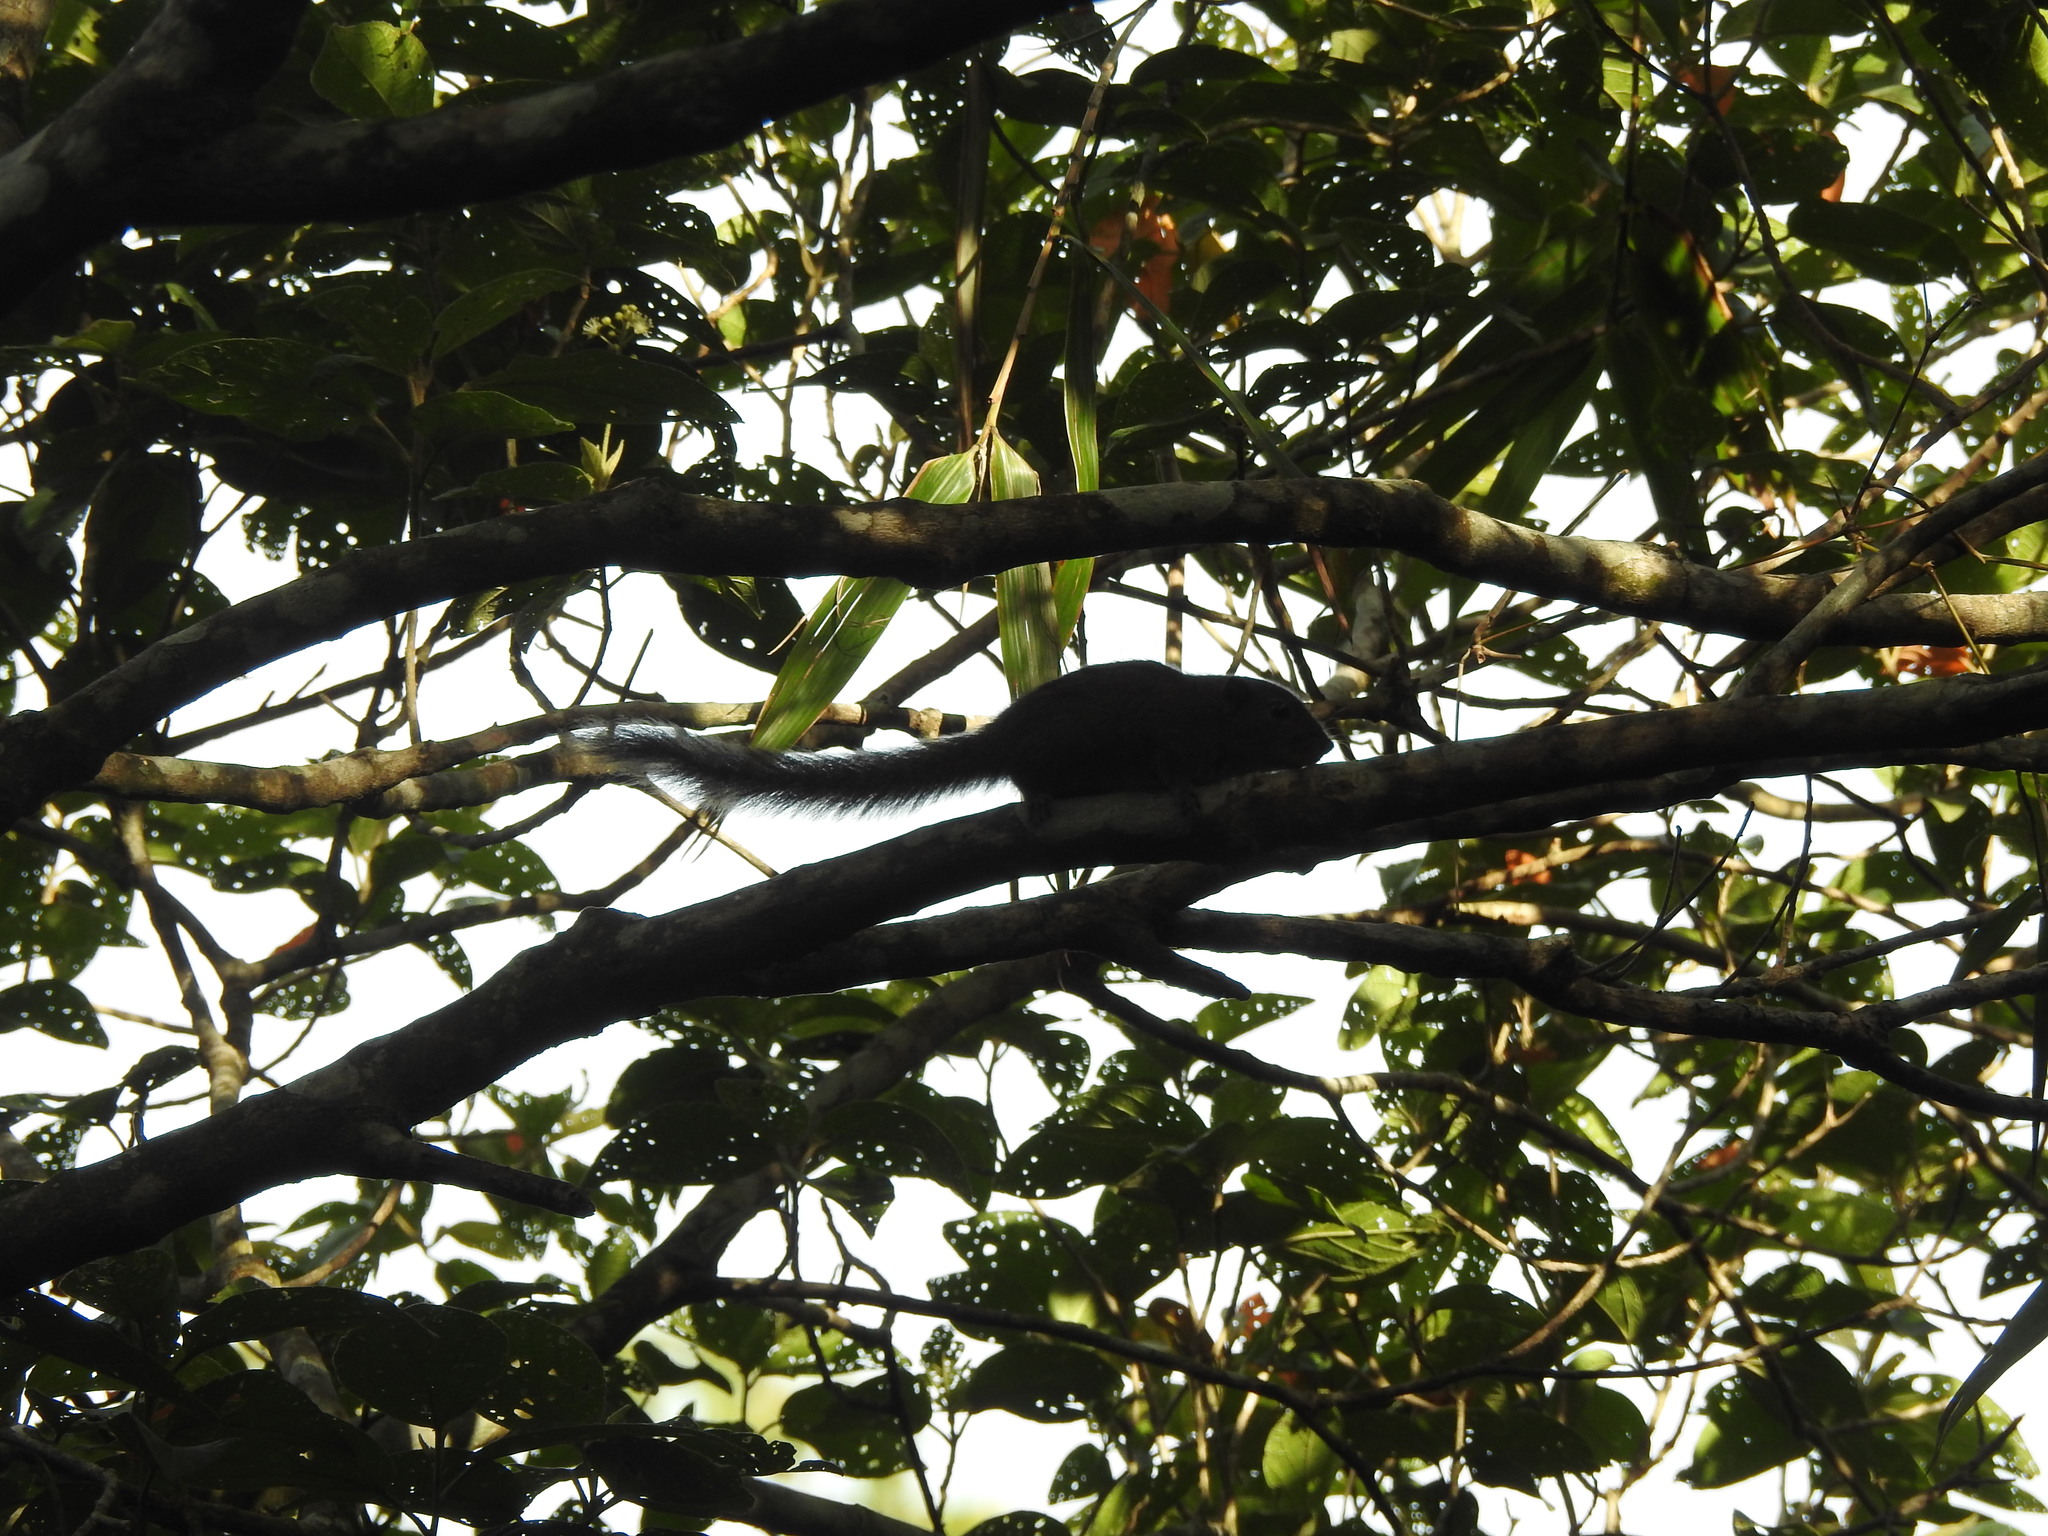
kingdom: Animalia
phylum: Chordata
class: Mammalia
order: Rodentia
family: Sciuridae
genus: Funambulus
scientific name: Funambulus sublineatus
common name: Dusky palm squirrel
